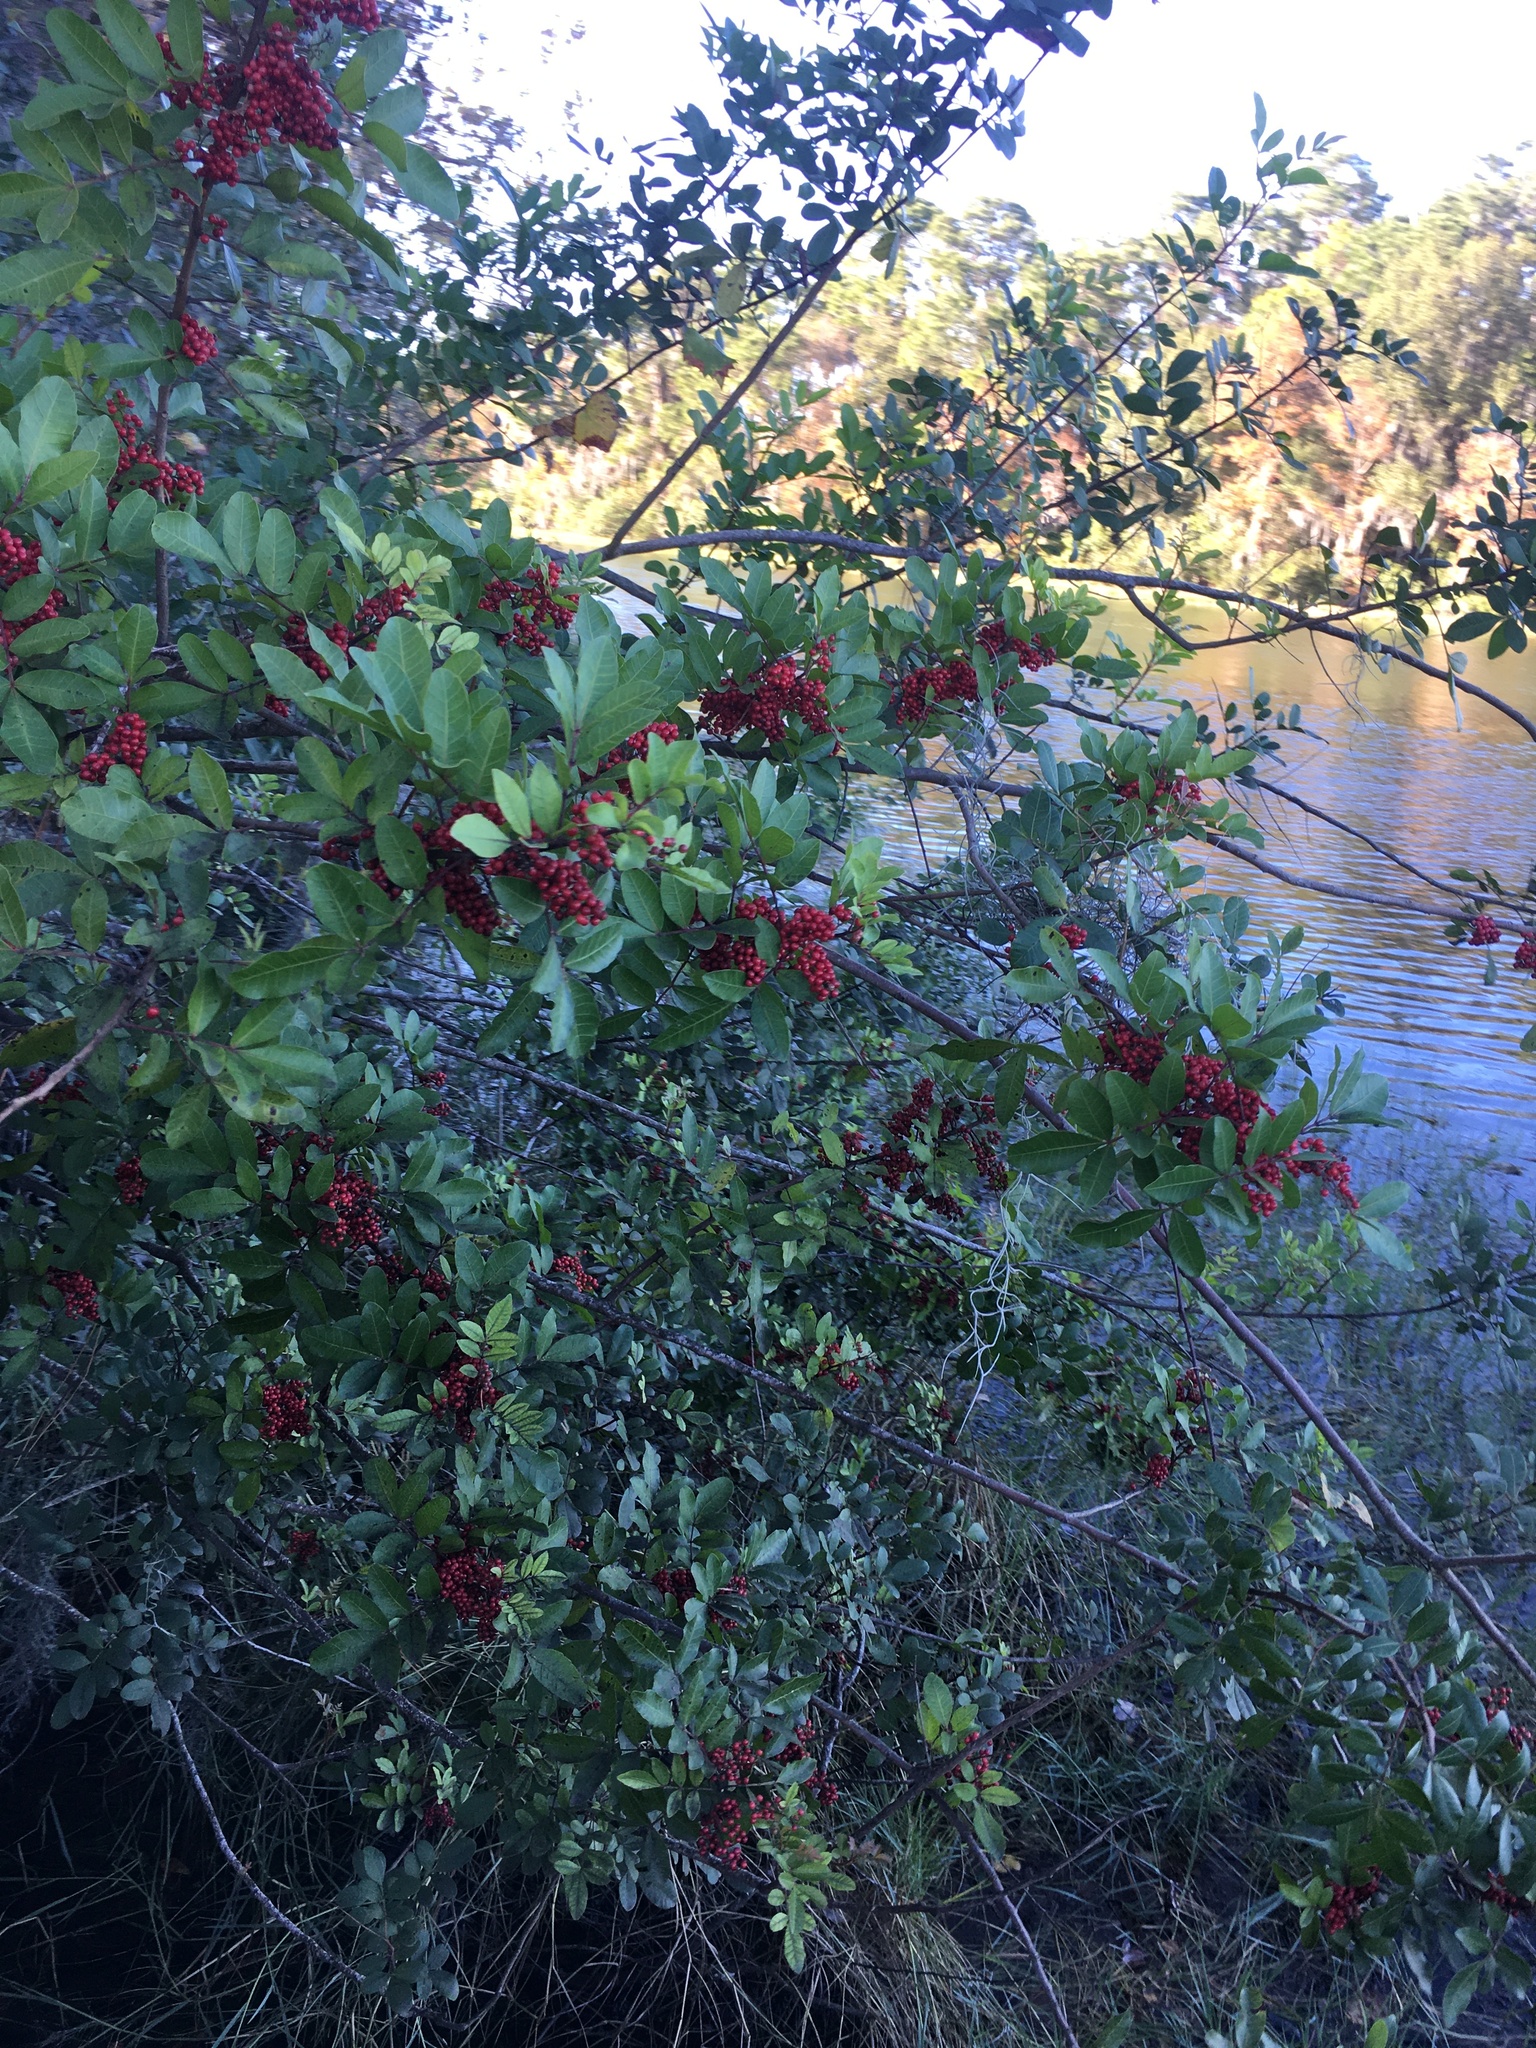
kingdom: Plantae
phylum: Tracheophyta
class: Magnoliopsida
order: Sapindales
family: Anacardiaceae
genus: Schinus
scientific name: Schinus terebinthifolia
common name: Brazilian peppertree
